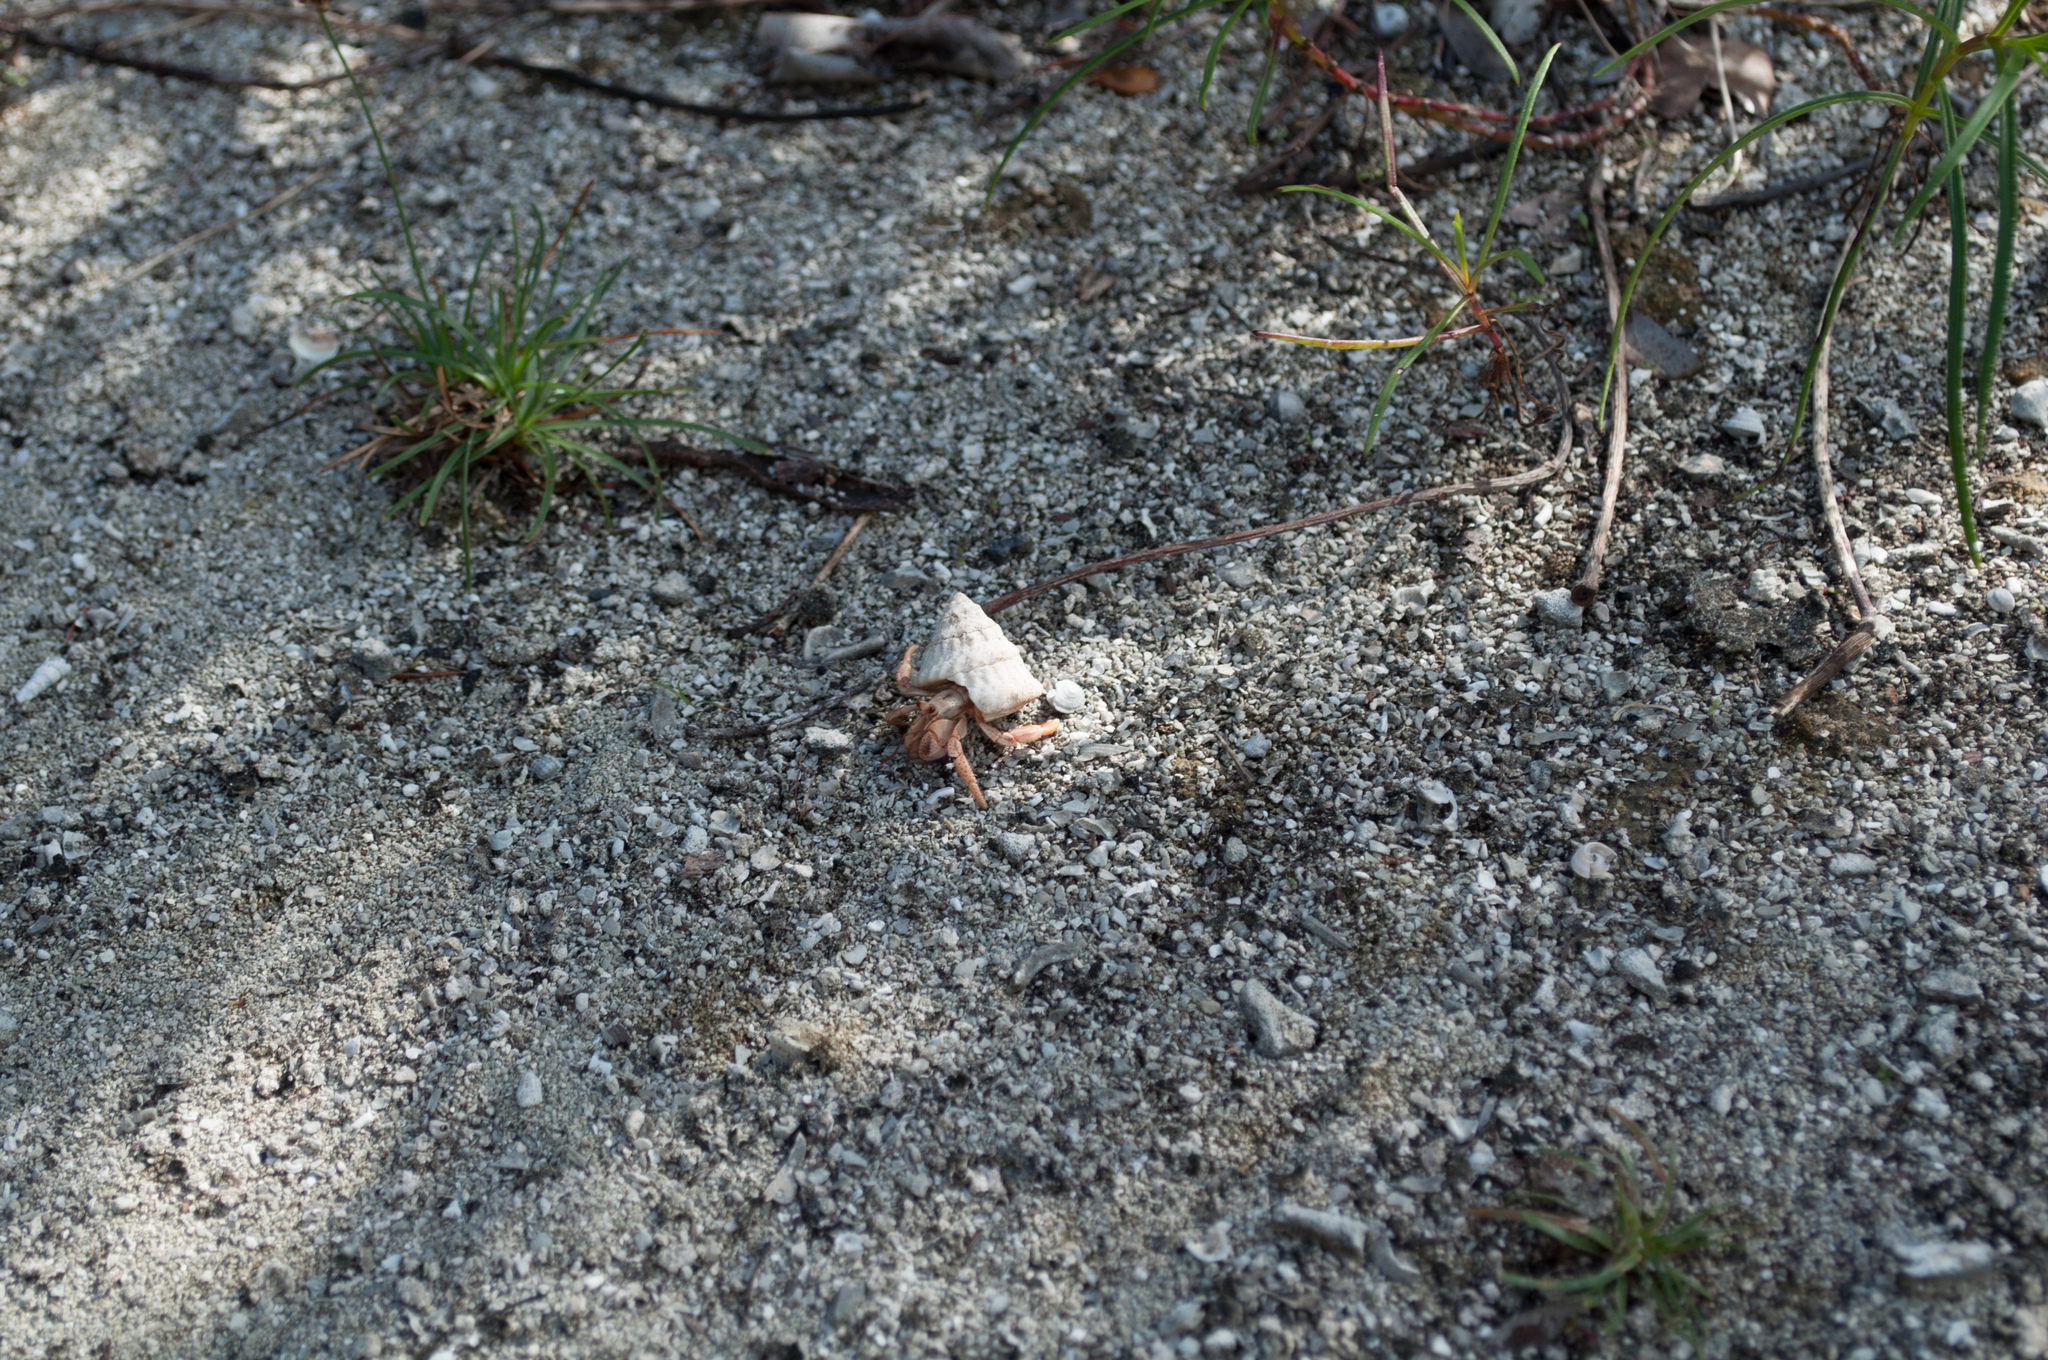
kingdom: Animalia
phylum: Arthropoda
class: Malacostraca
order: Decapoda
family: Coenobitidae
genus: Coenobita
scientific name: Coenobita clypeatus
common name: Caribbean hermit crab
